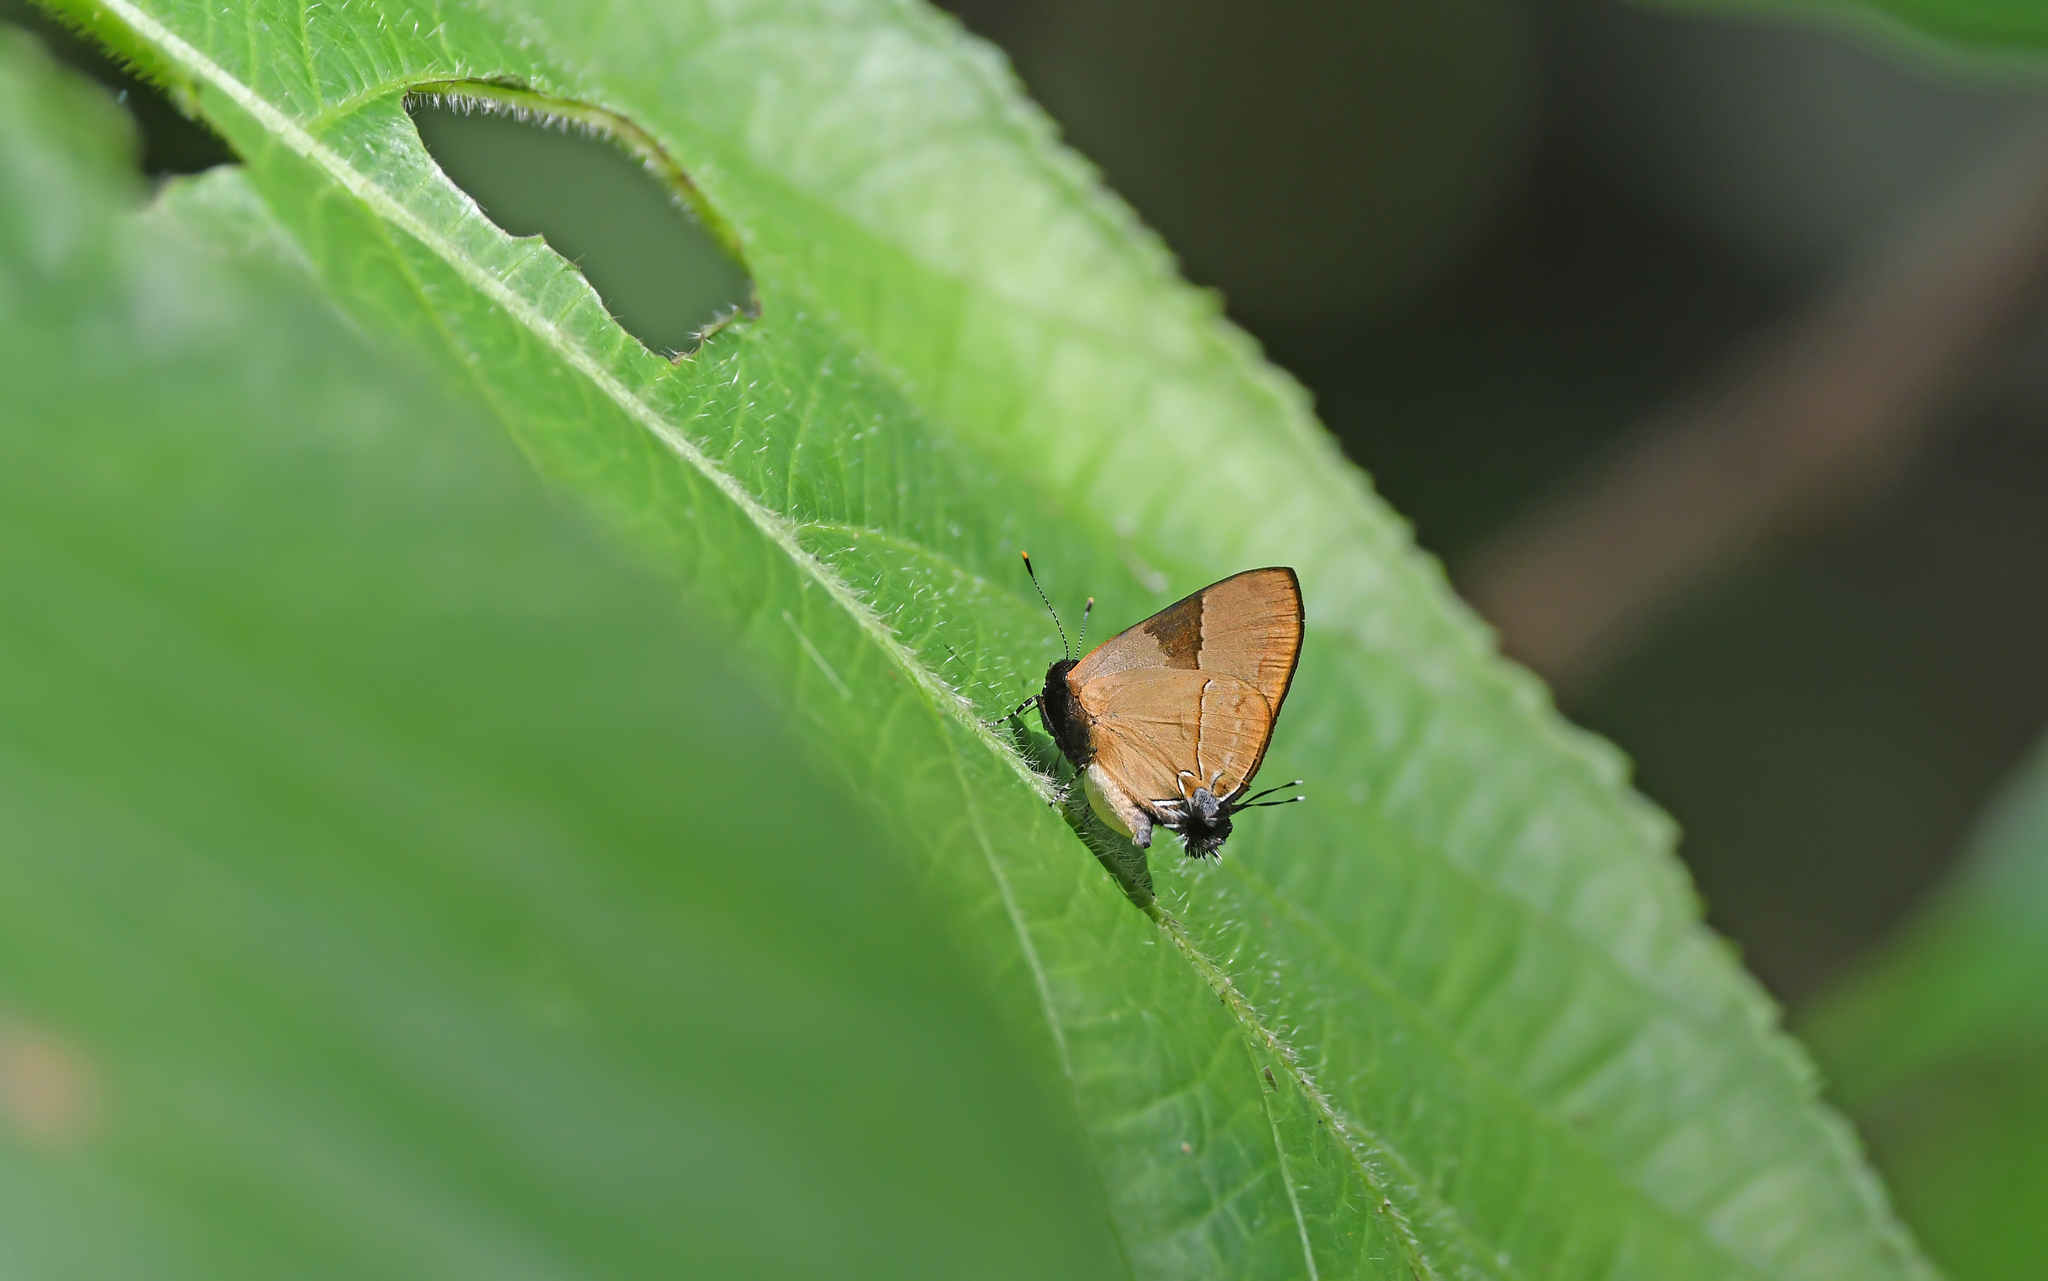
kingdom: Animalia
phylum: Arthropoda
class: Insecta
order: Lepidoptera
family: Lycaenidae
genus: Calycopis
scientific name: Calycopis calus
